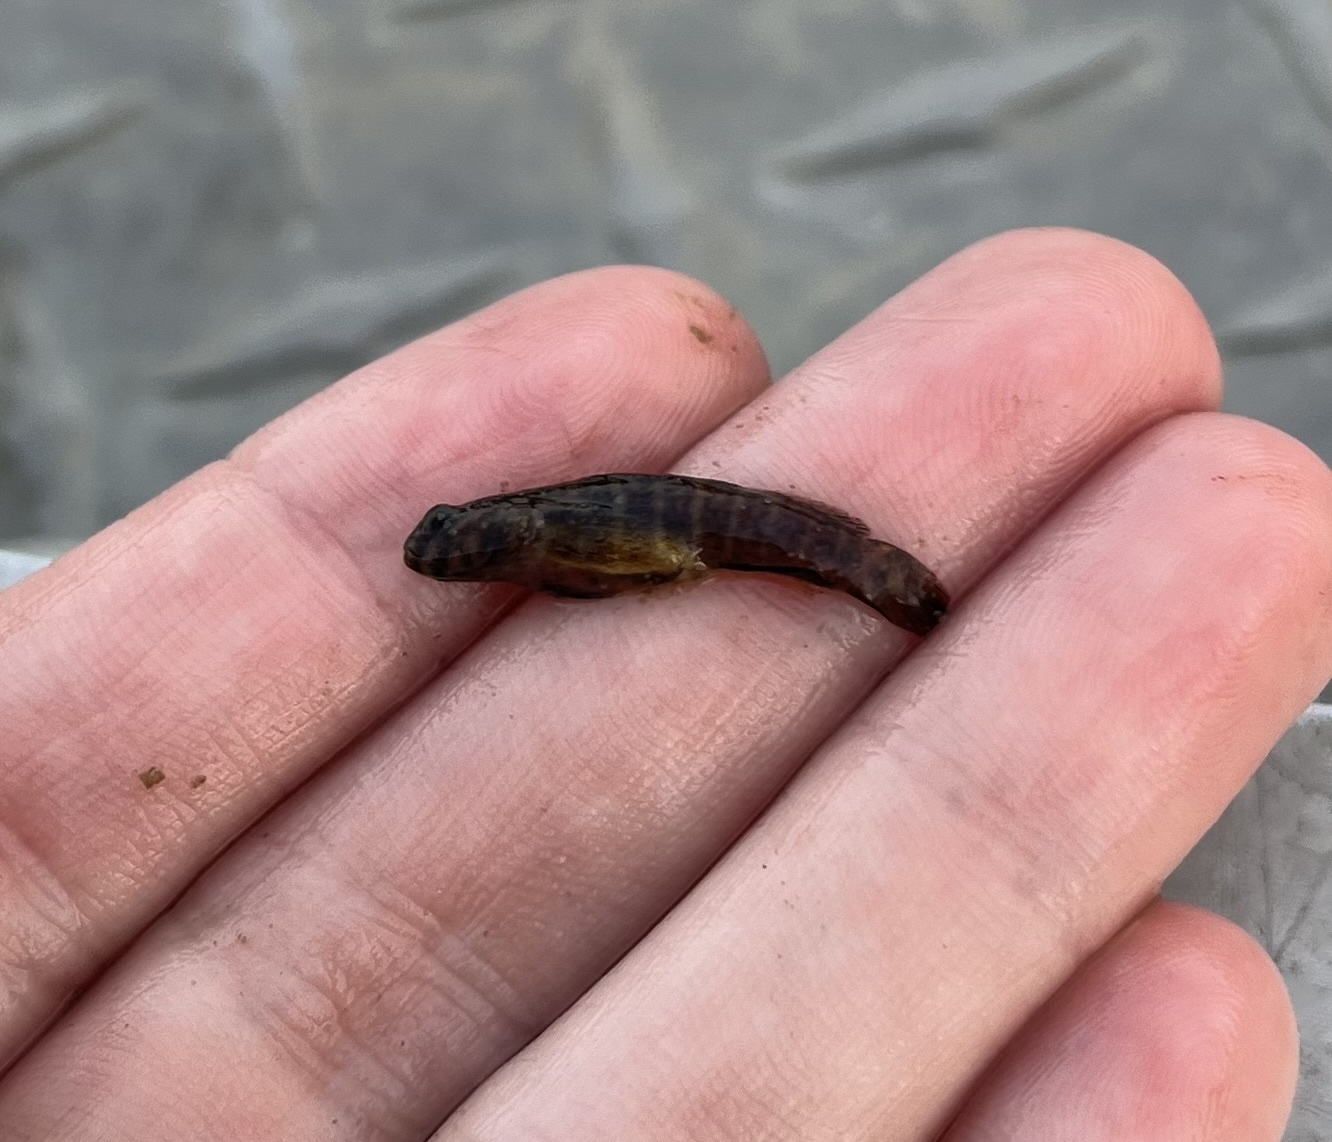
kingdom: Animalia
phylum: Chordata
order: Perciformes
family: Gobiidae
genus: Gobiosoma
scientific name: Gobiosoma bosc
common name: Naked goby
